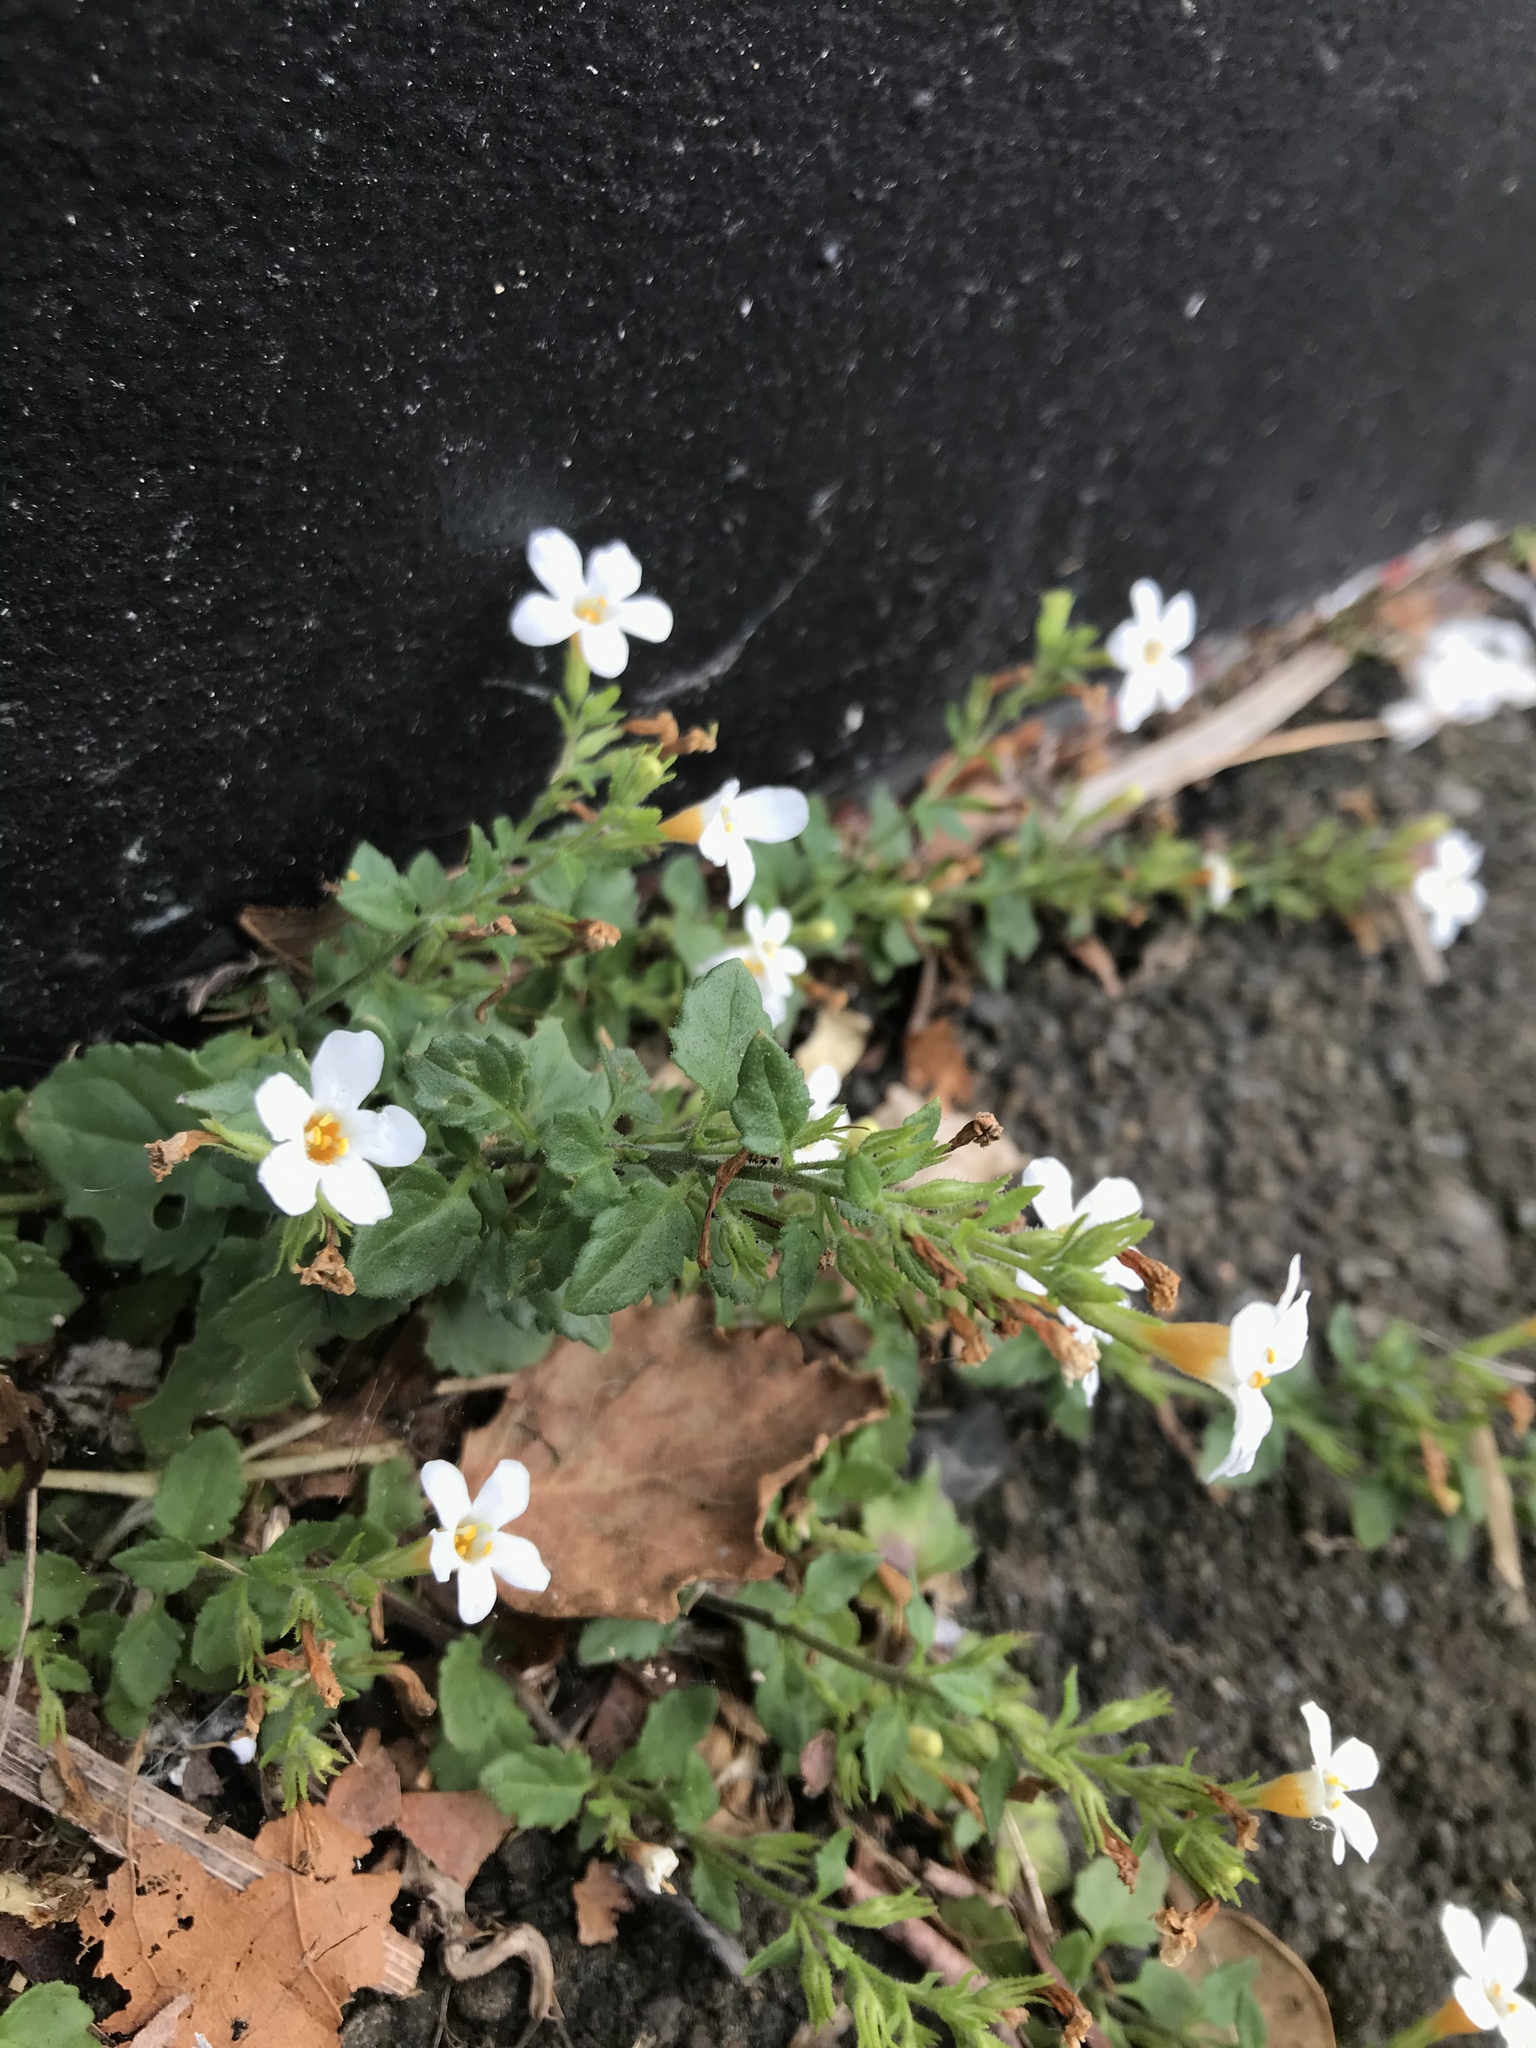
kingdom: Plantae
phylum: Tracheophyta
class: Magnoliopsida
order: Lamiales
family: Scrophulariaceae
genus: Chaenostoma
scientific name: Chaenostoma cordatum
